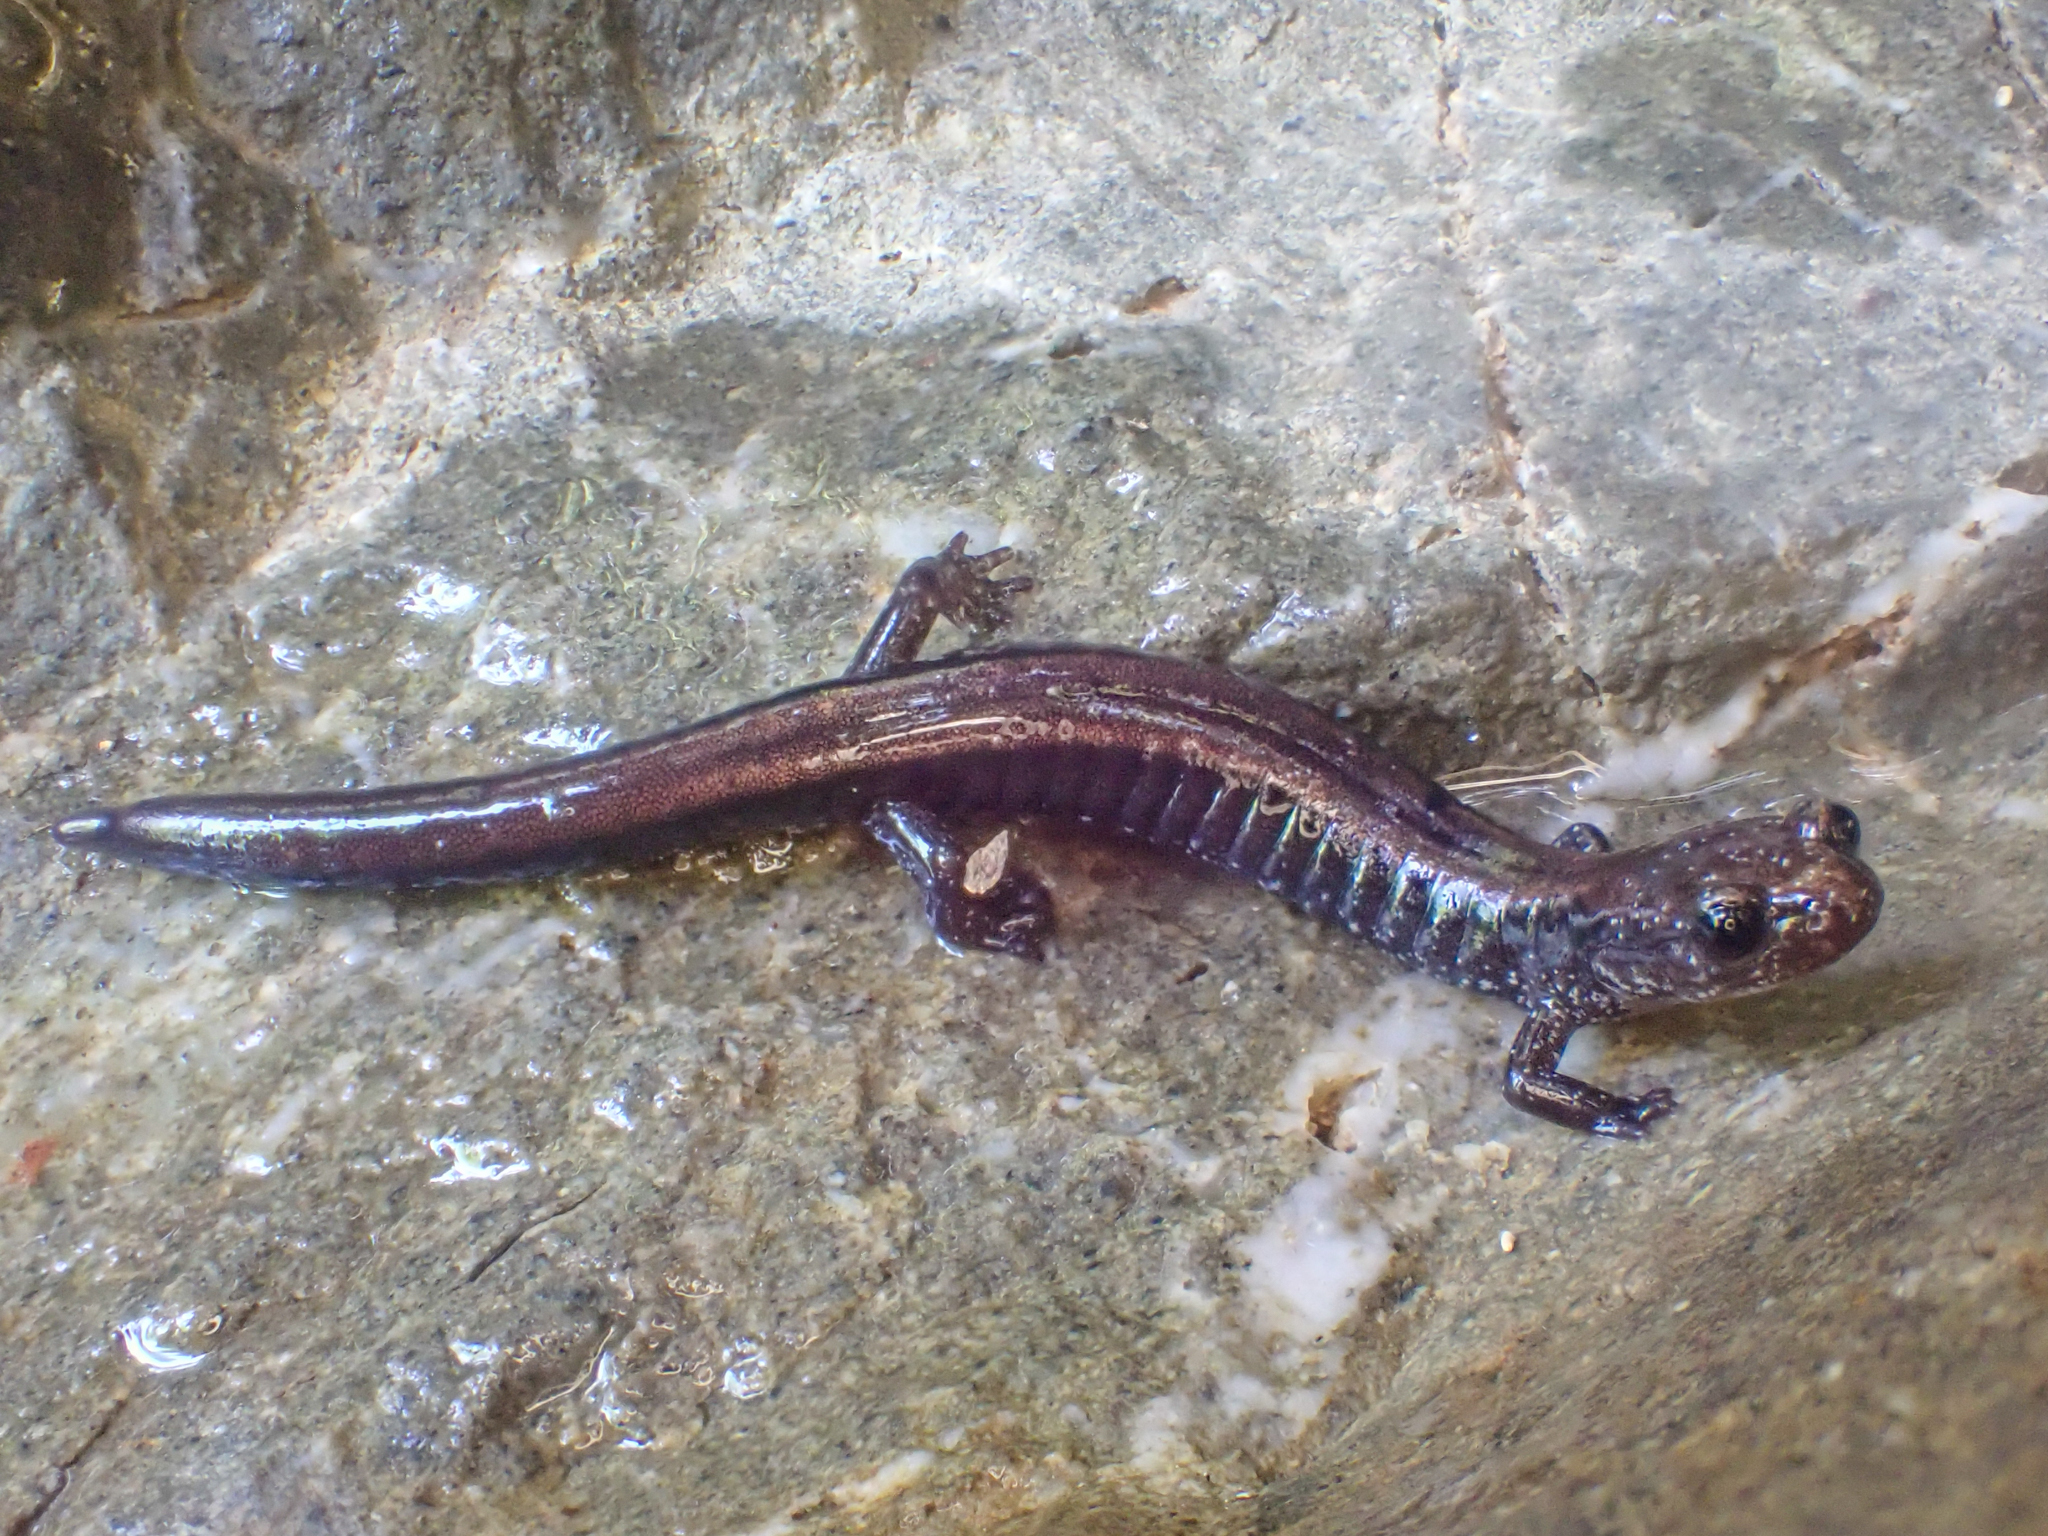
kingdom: Animalia
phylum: Chordata
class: Amphibia
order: Caudata
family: Plethodontidae
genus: Plethodon
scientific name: Plethodon elongatus
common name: Del norte salamander
